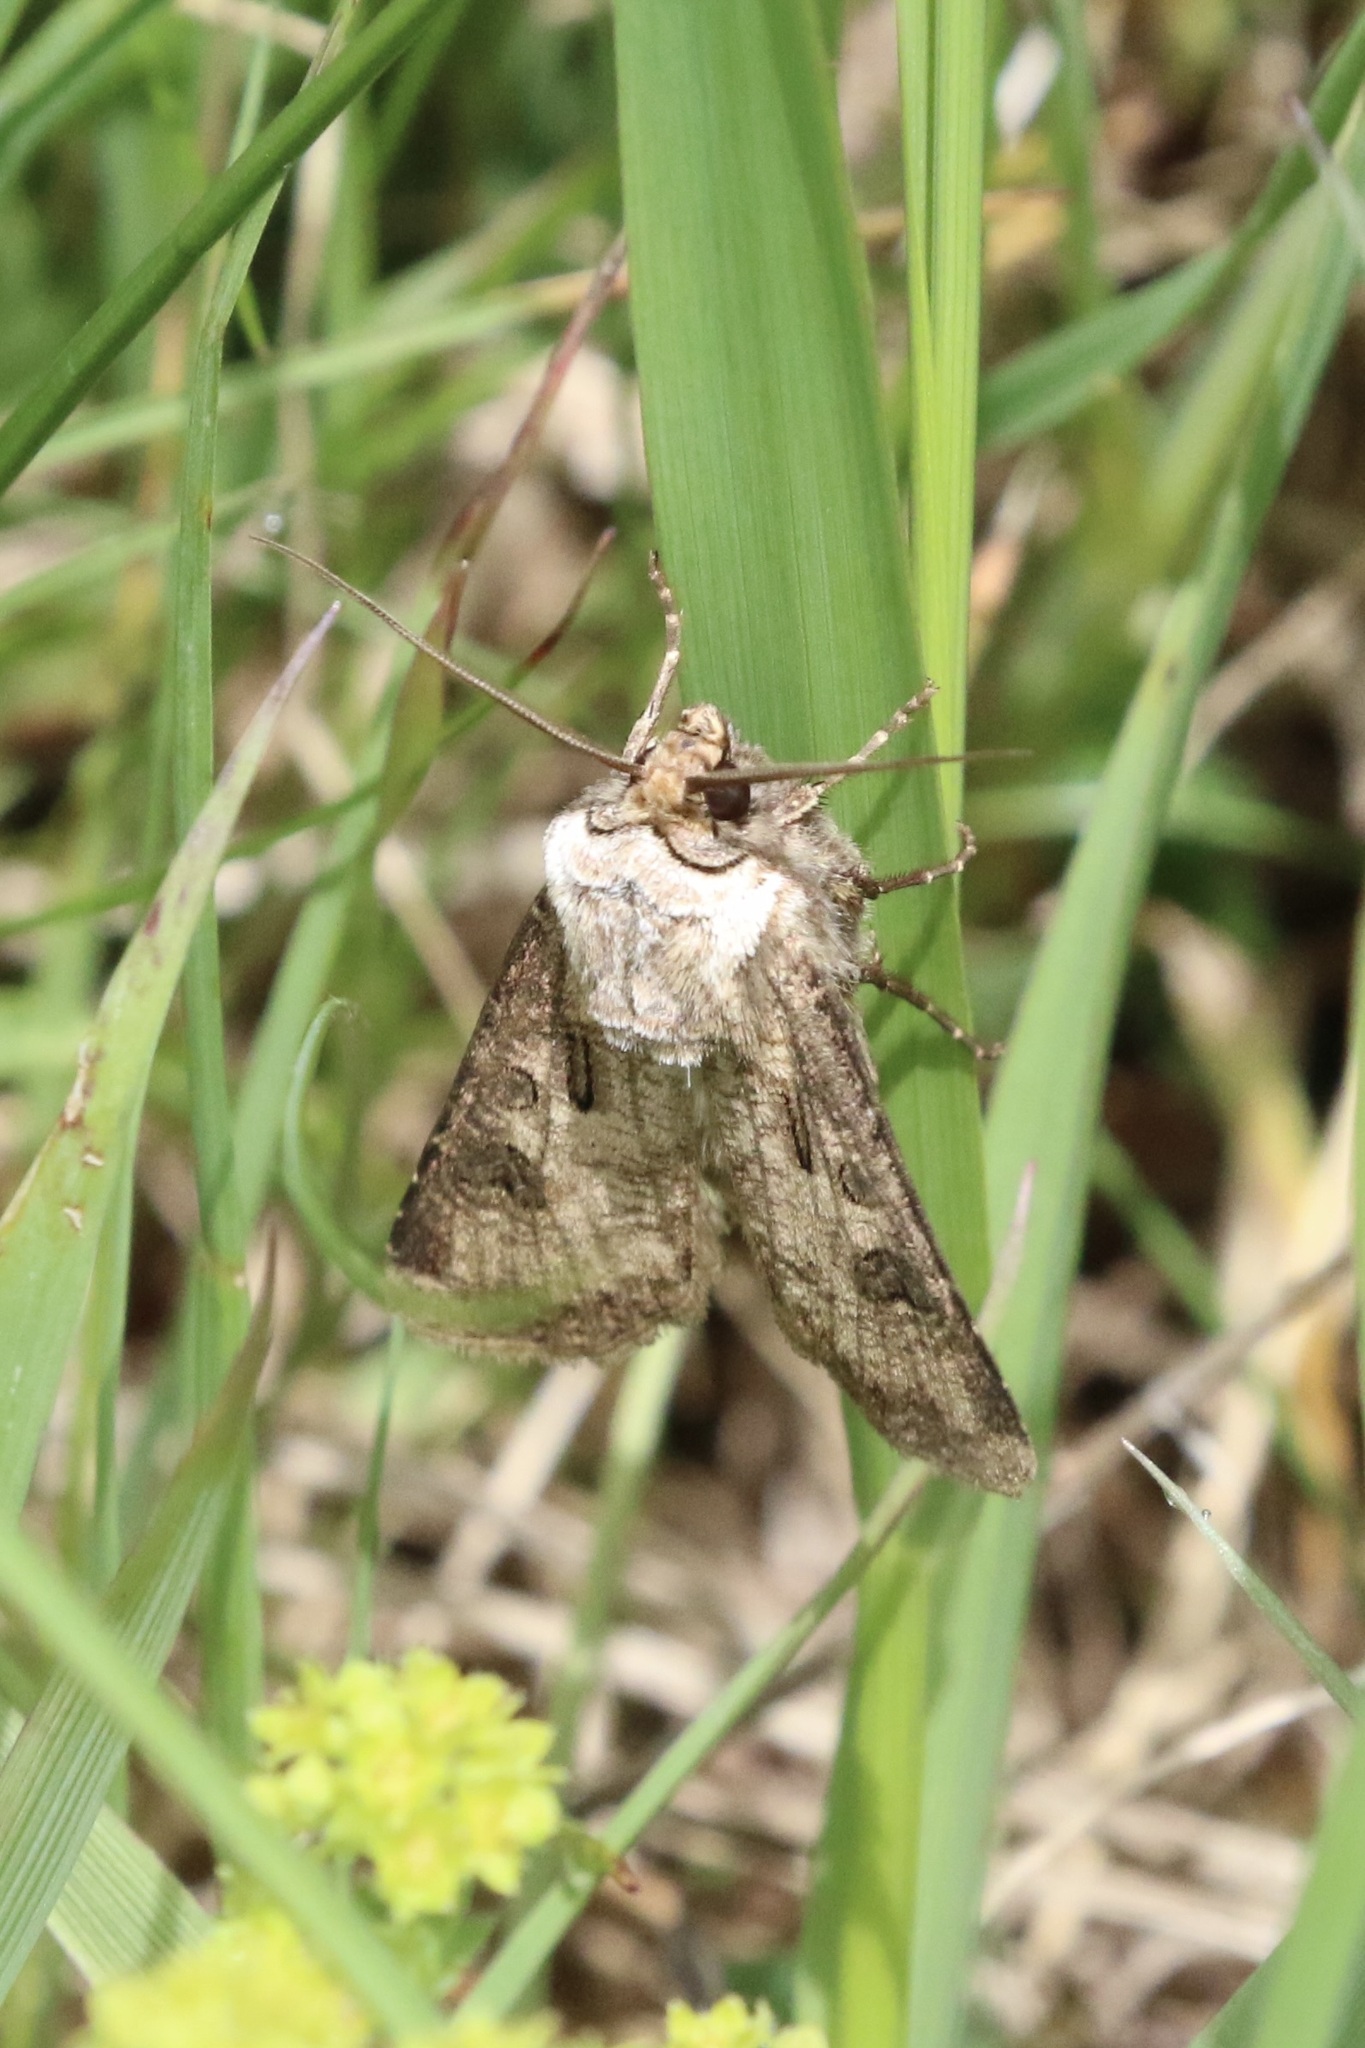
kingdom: Animalia
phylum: Arthropoda
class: Insecta
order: Lepidoptera
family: Noctuidae
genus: Agrotis
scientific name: Agrotis clavis
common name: Heart and club
